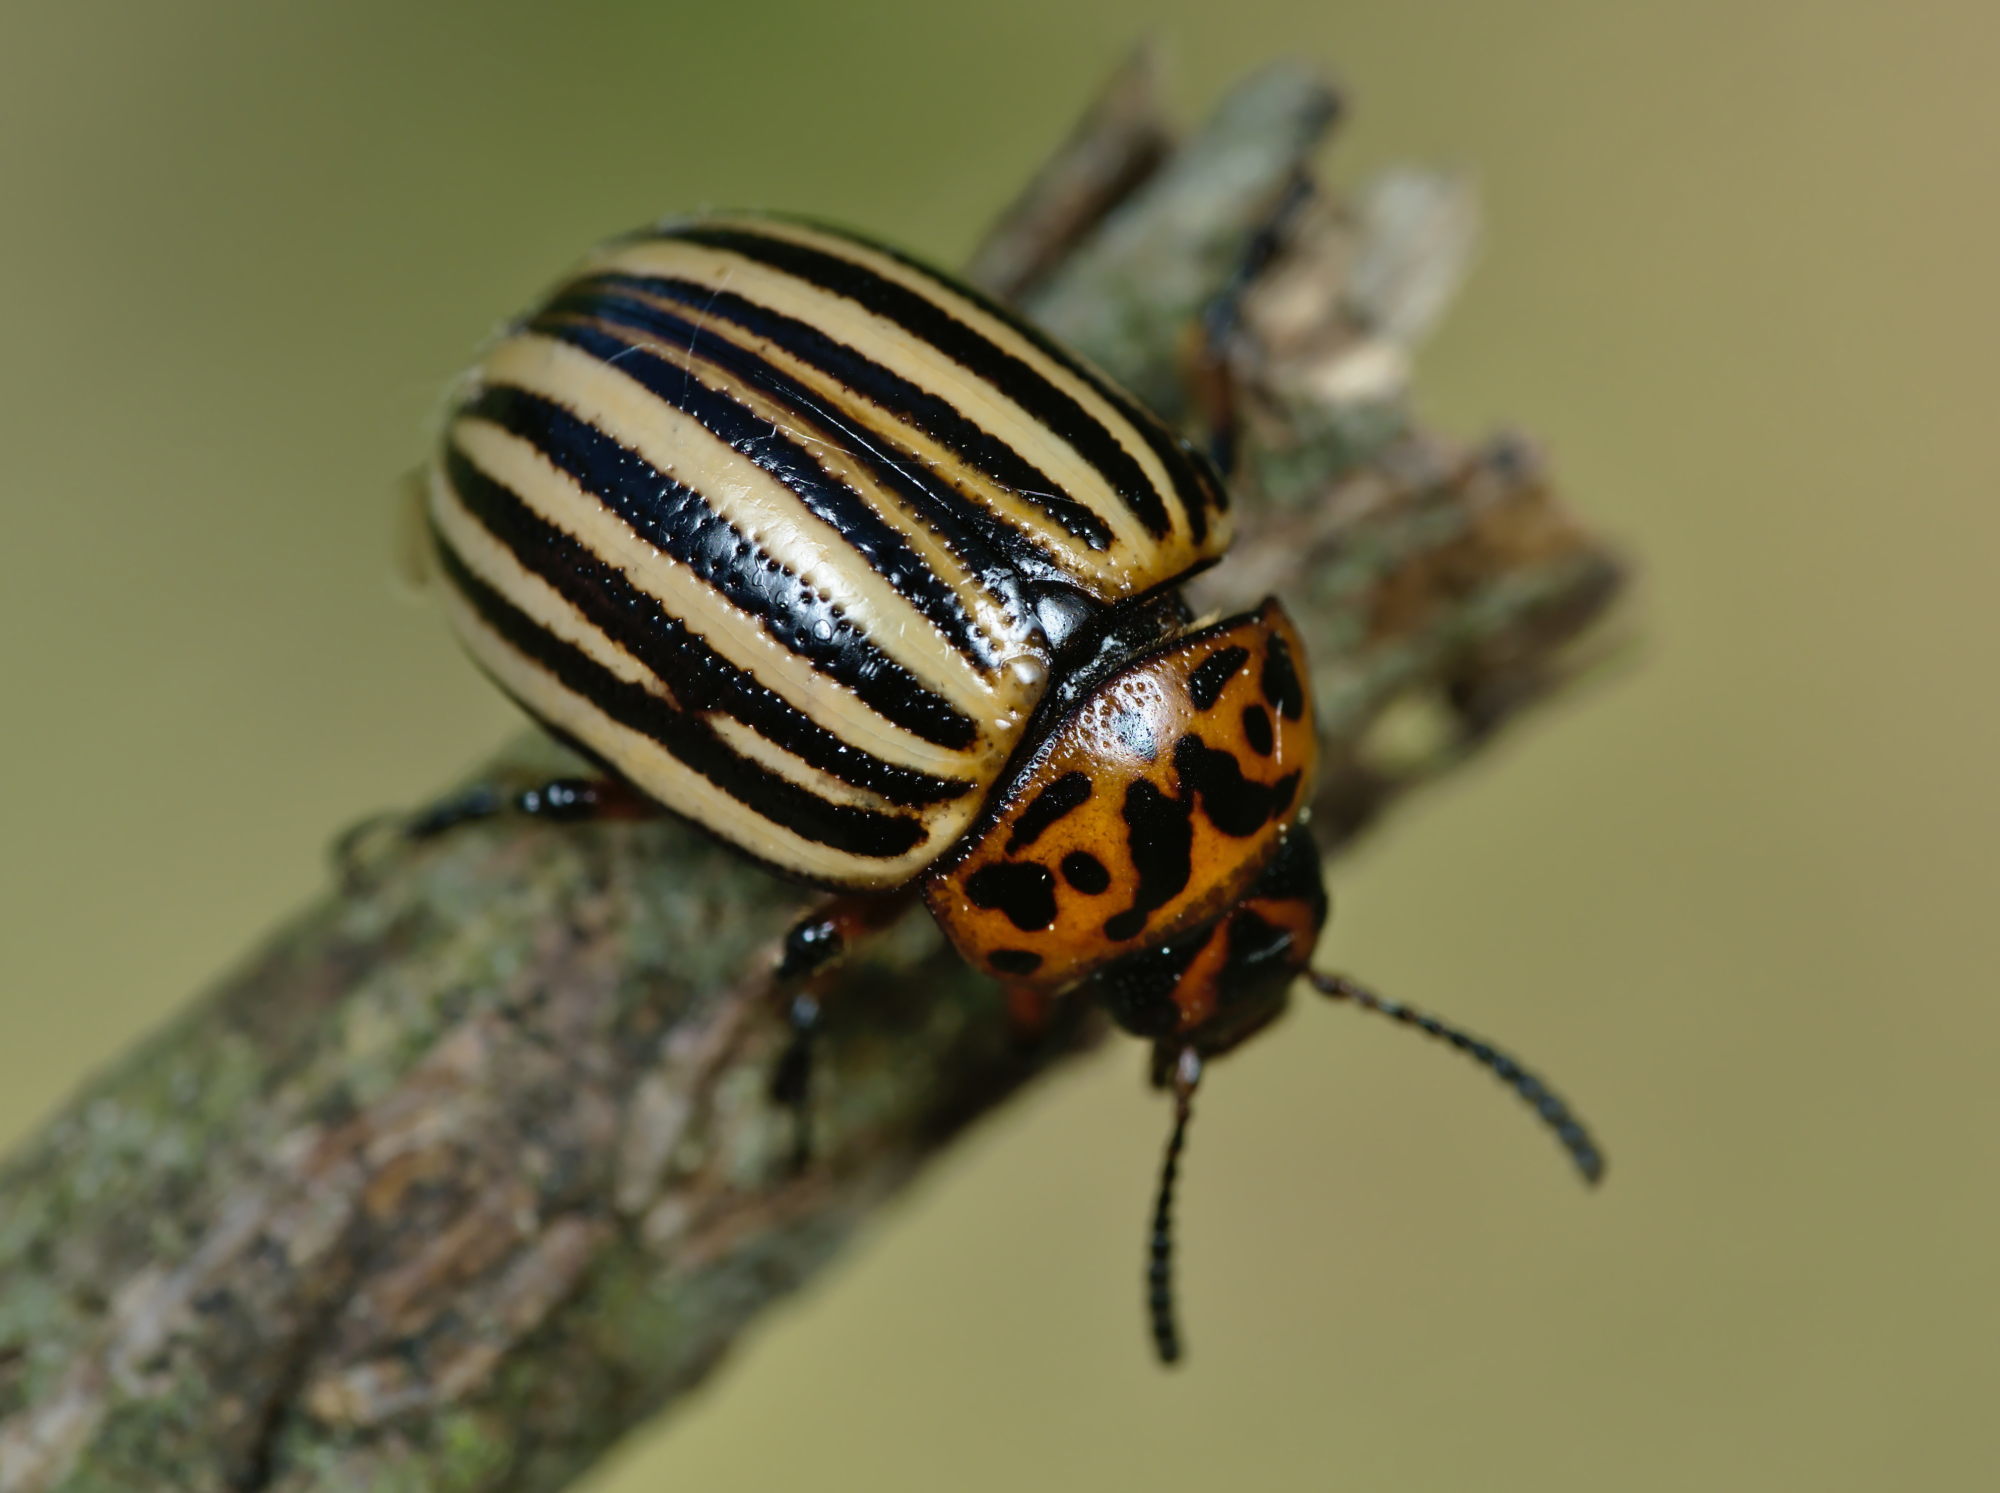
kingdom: Animalia
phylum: Arthropoda
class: Insecta
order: Coleoptera
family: Chrysomelidae
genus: Leptinotarsa
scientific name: Leptinotarsa decemlineata
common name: Colorado potato beetle
